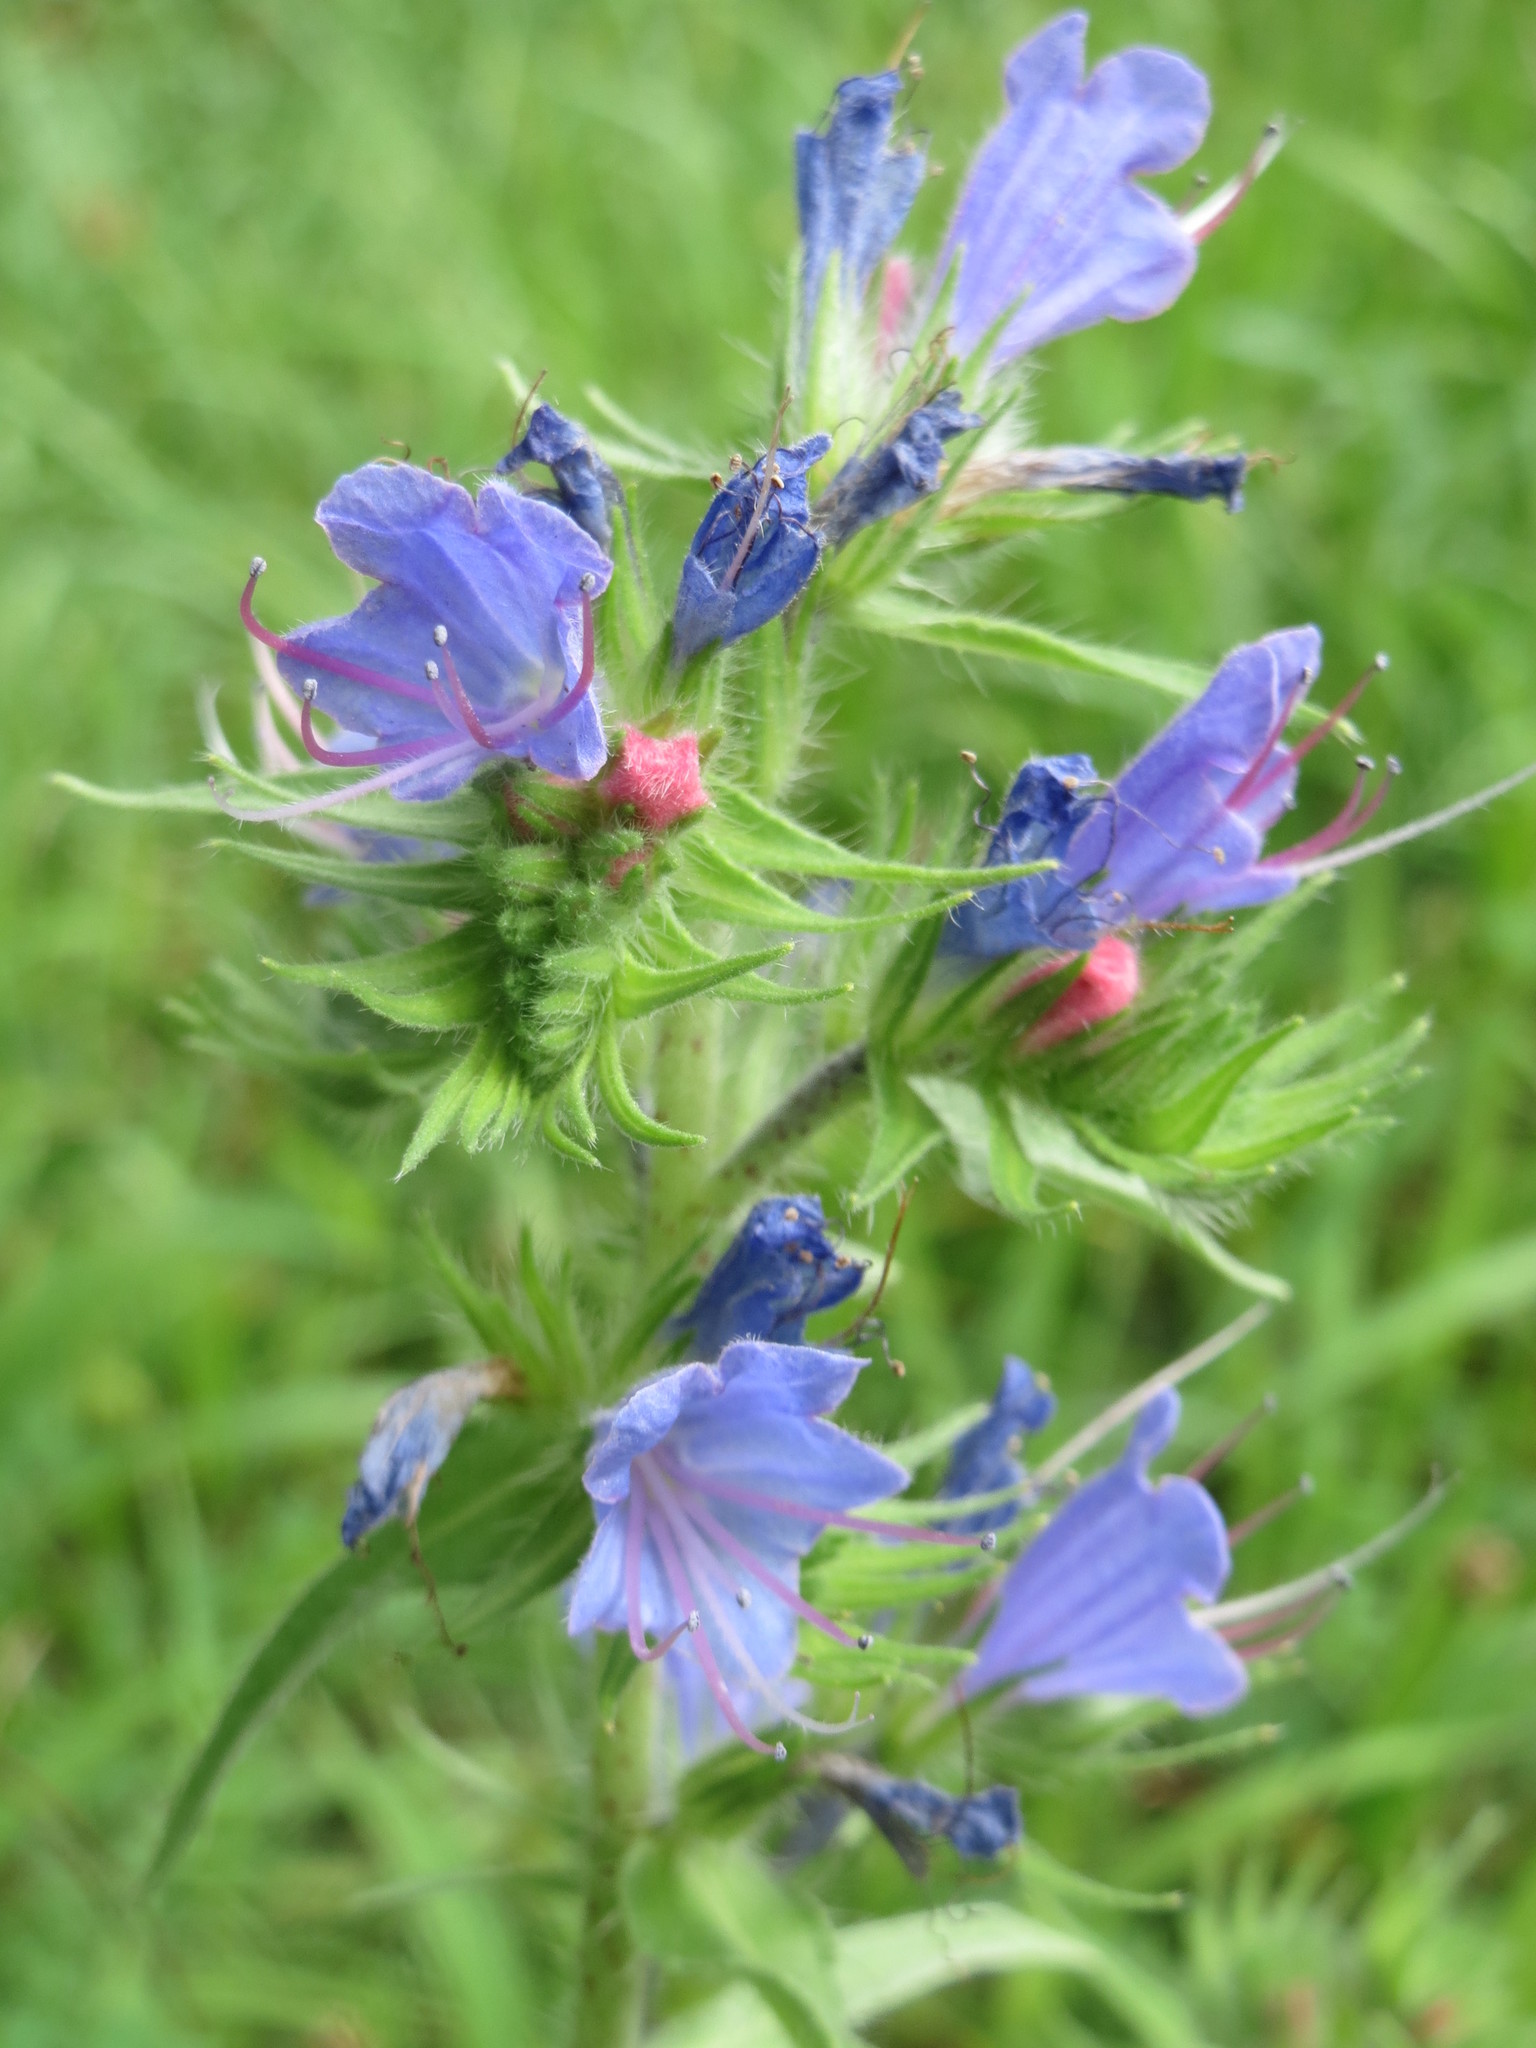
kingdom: Plantae
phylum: Tracheophyta
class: Magnoliopsida
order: Boraginales
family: Boraginaceae
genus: Echium
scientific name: Echium vulgare
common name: Common viper's bugloss
